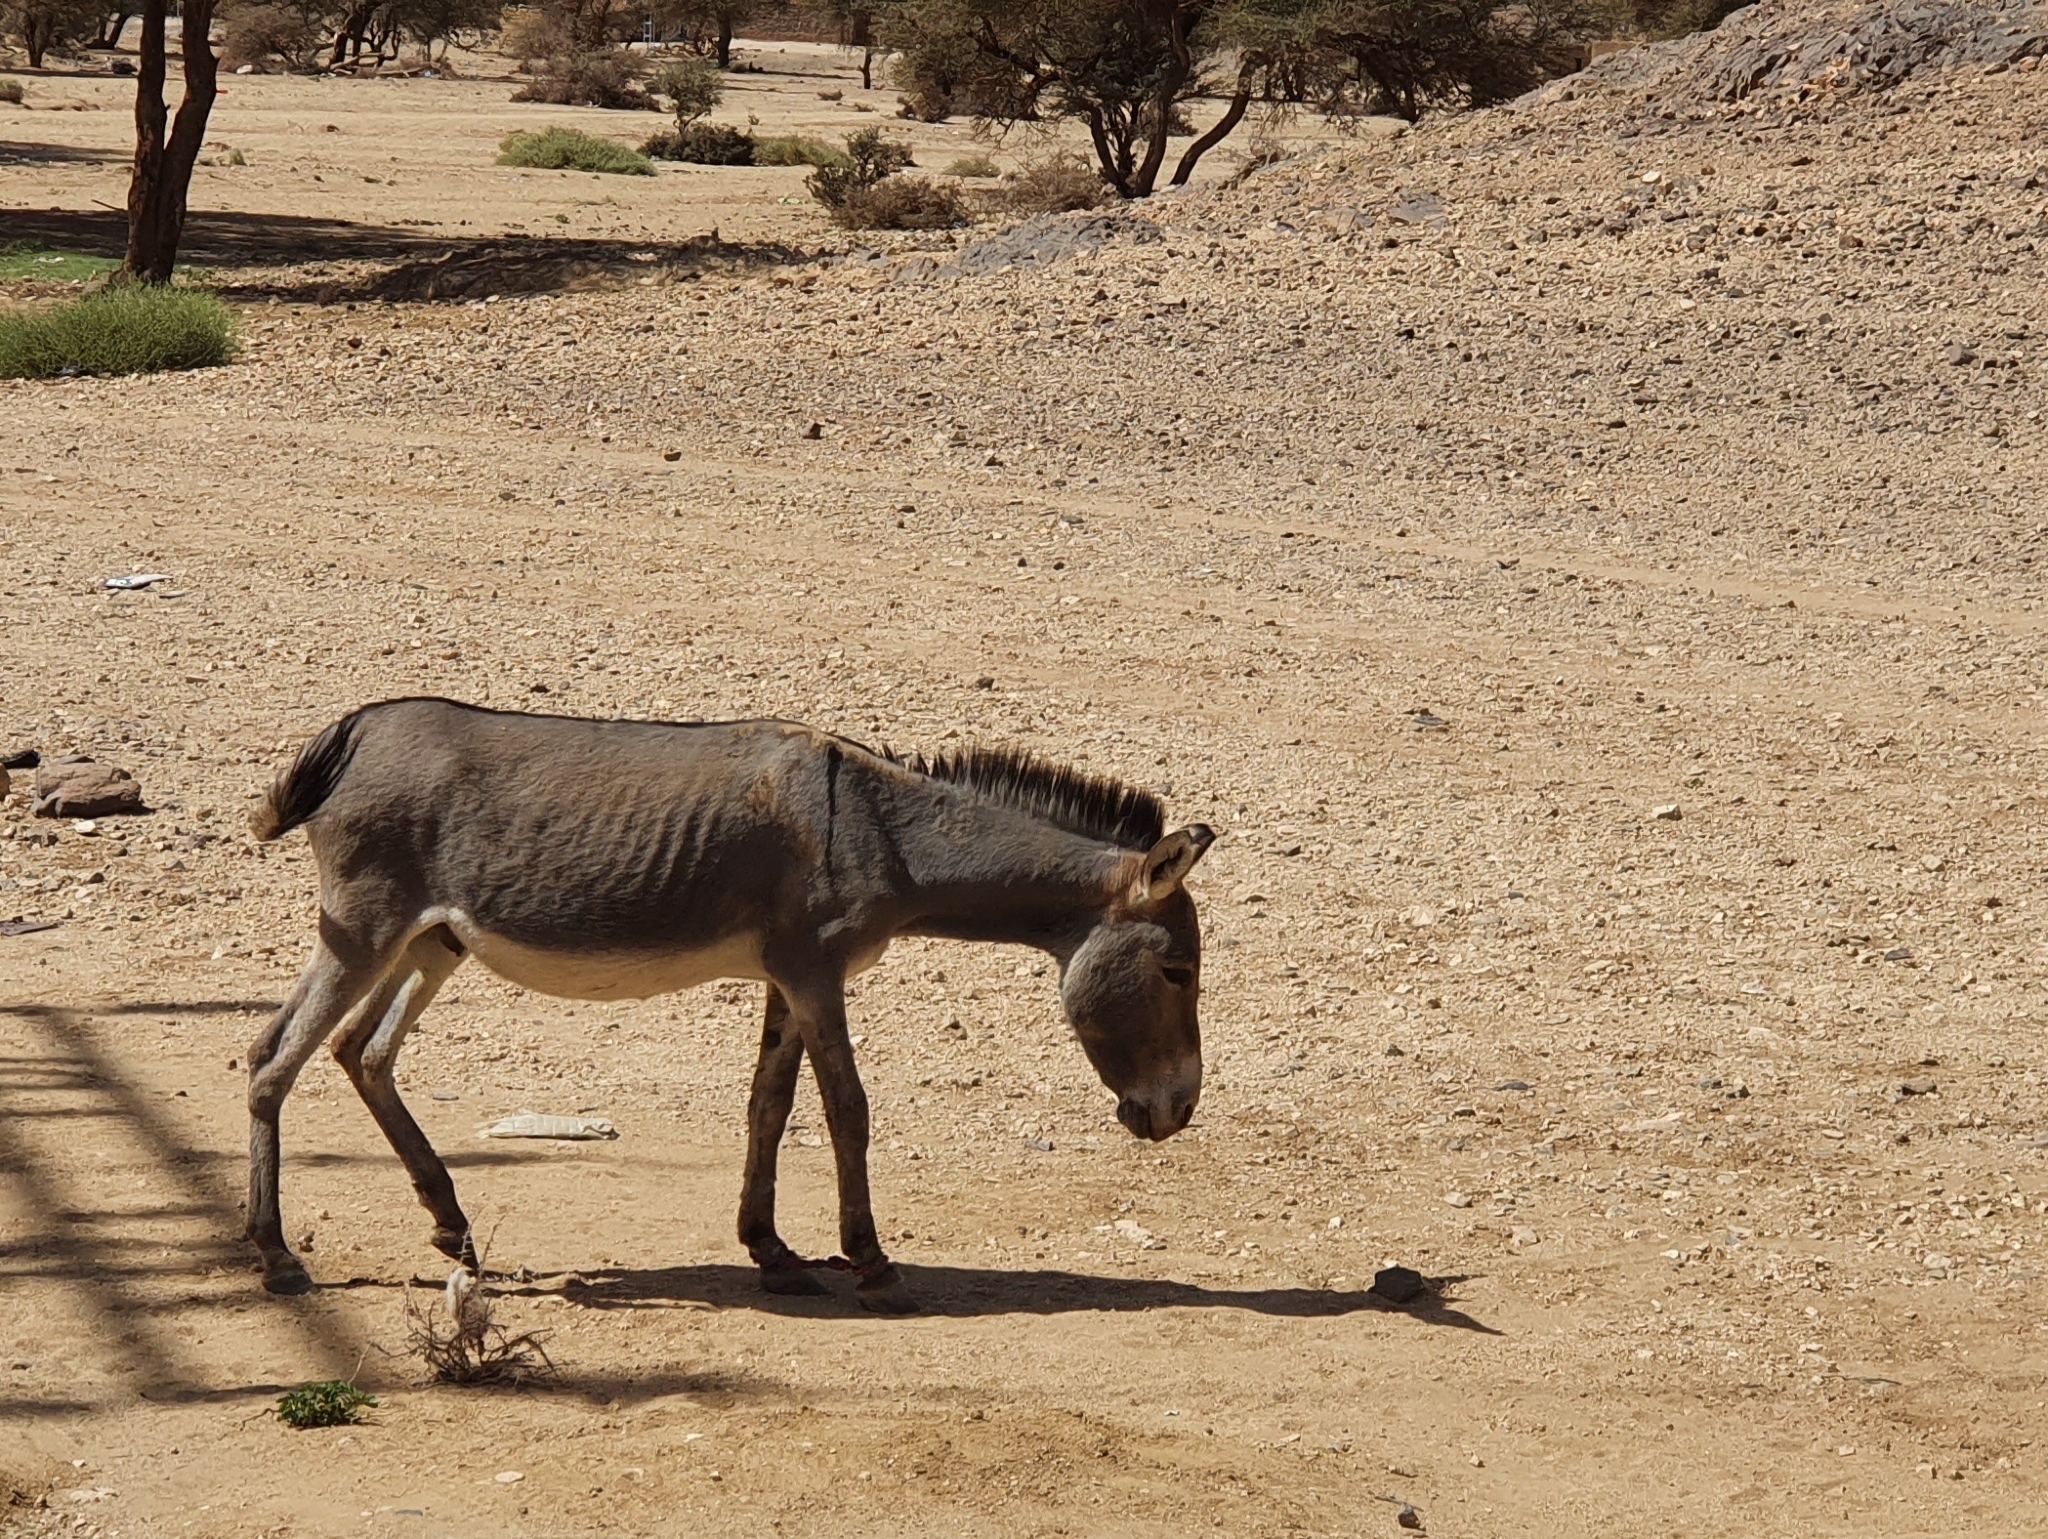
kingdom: Animalia
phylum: Chordata
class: Mammalia
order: Perissodactyla
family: Equidae
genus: Equus
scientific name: Equus asinus
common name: Ass
